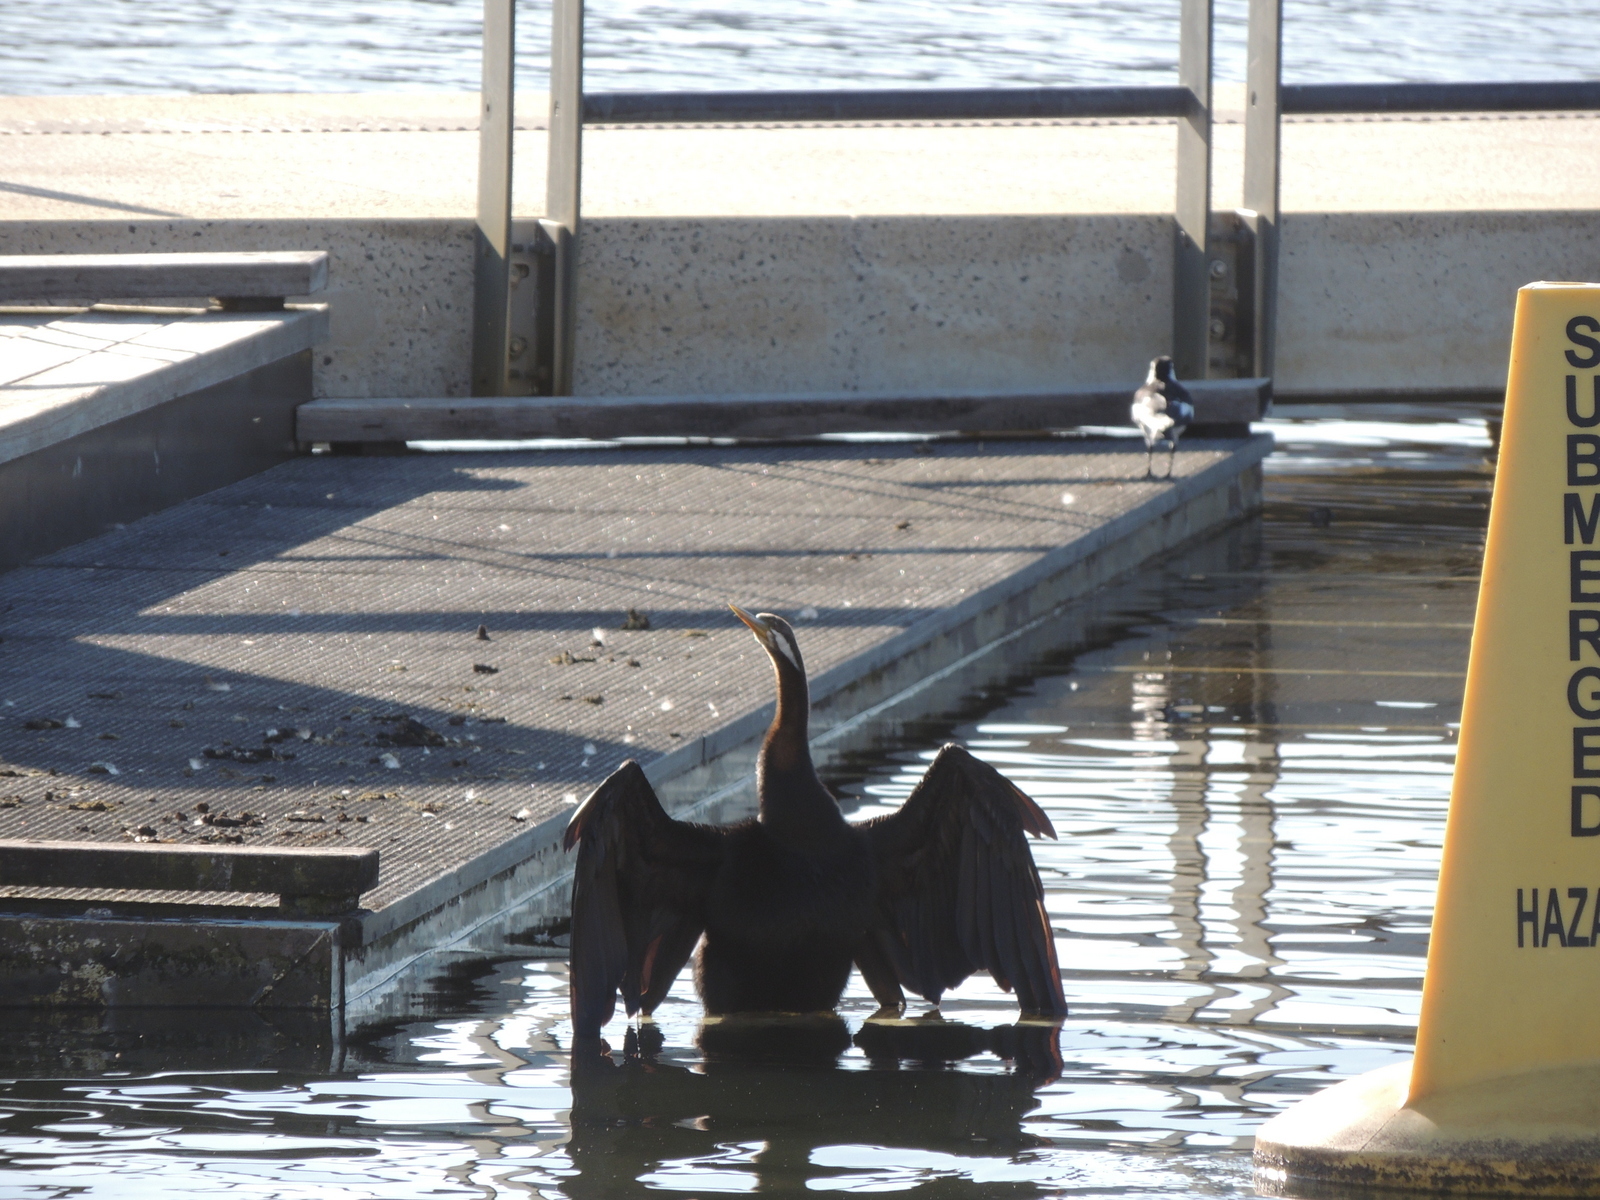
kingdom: Animalia
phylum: Chordata
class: Aves
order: Suliformes
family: Anhingidae
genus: Anhinga
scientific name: Anhinga novaehollandiae
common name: Australasian darter
